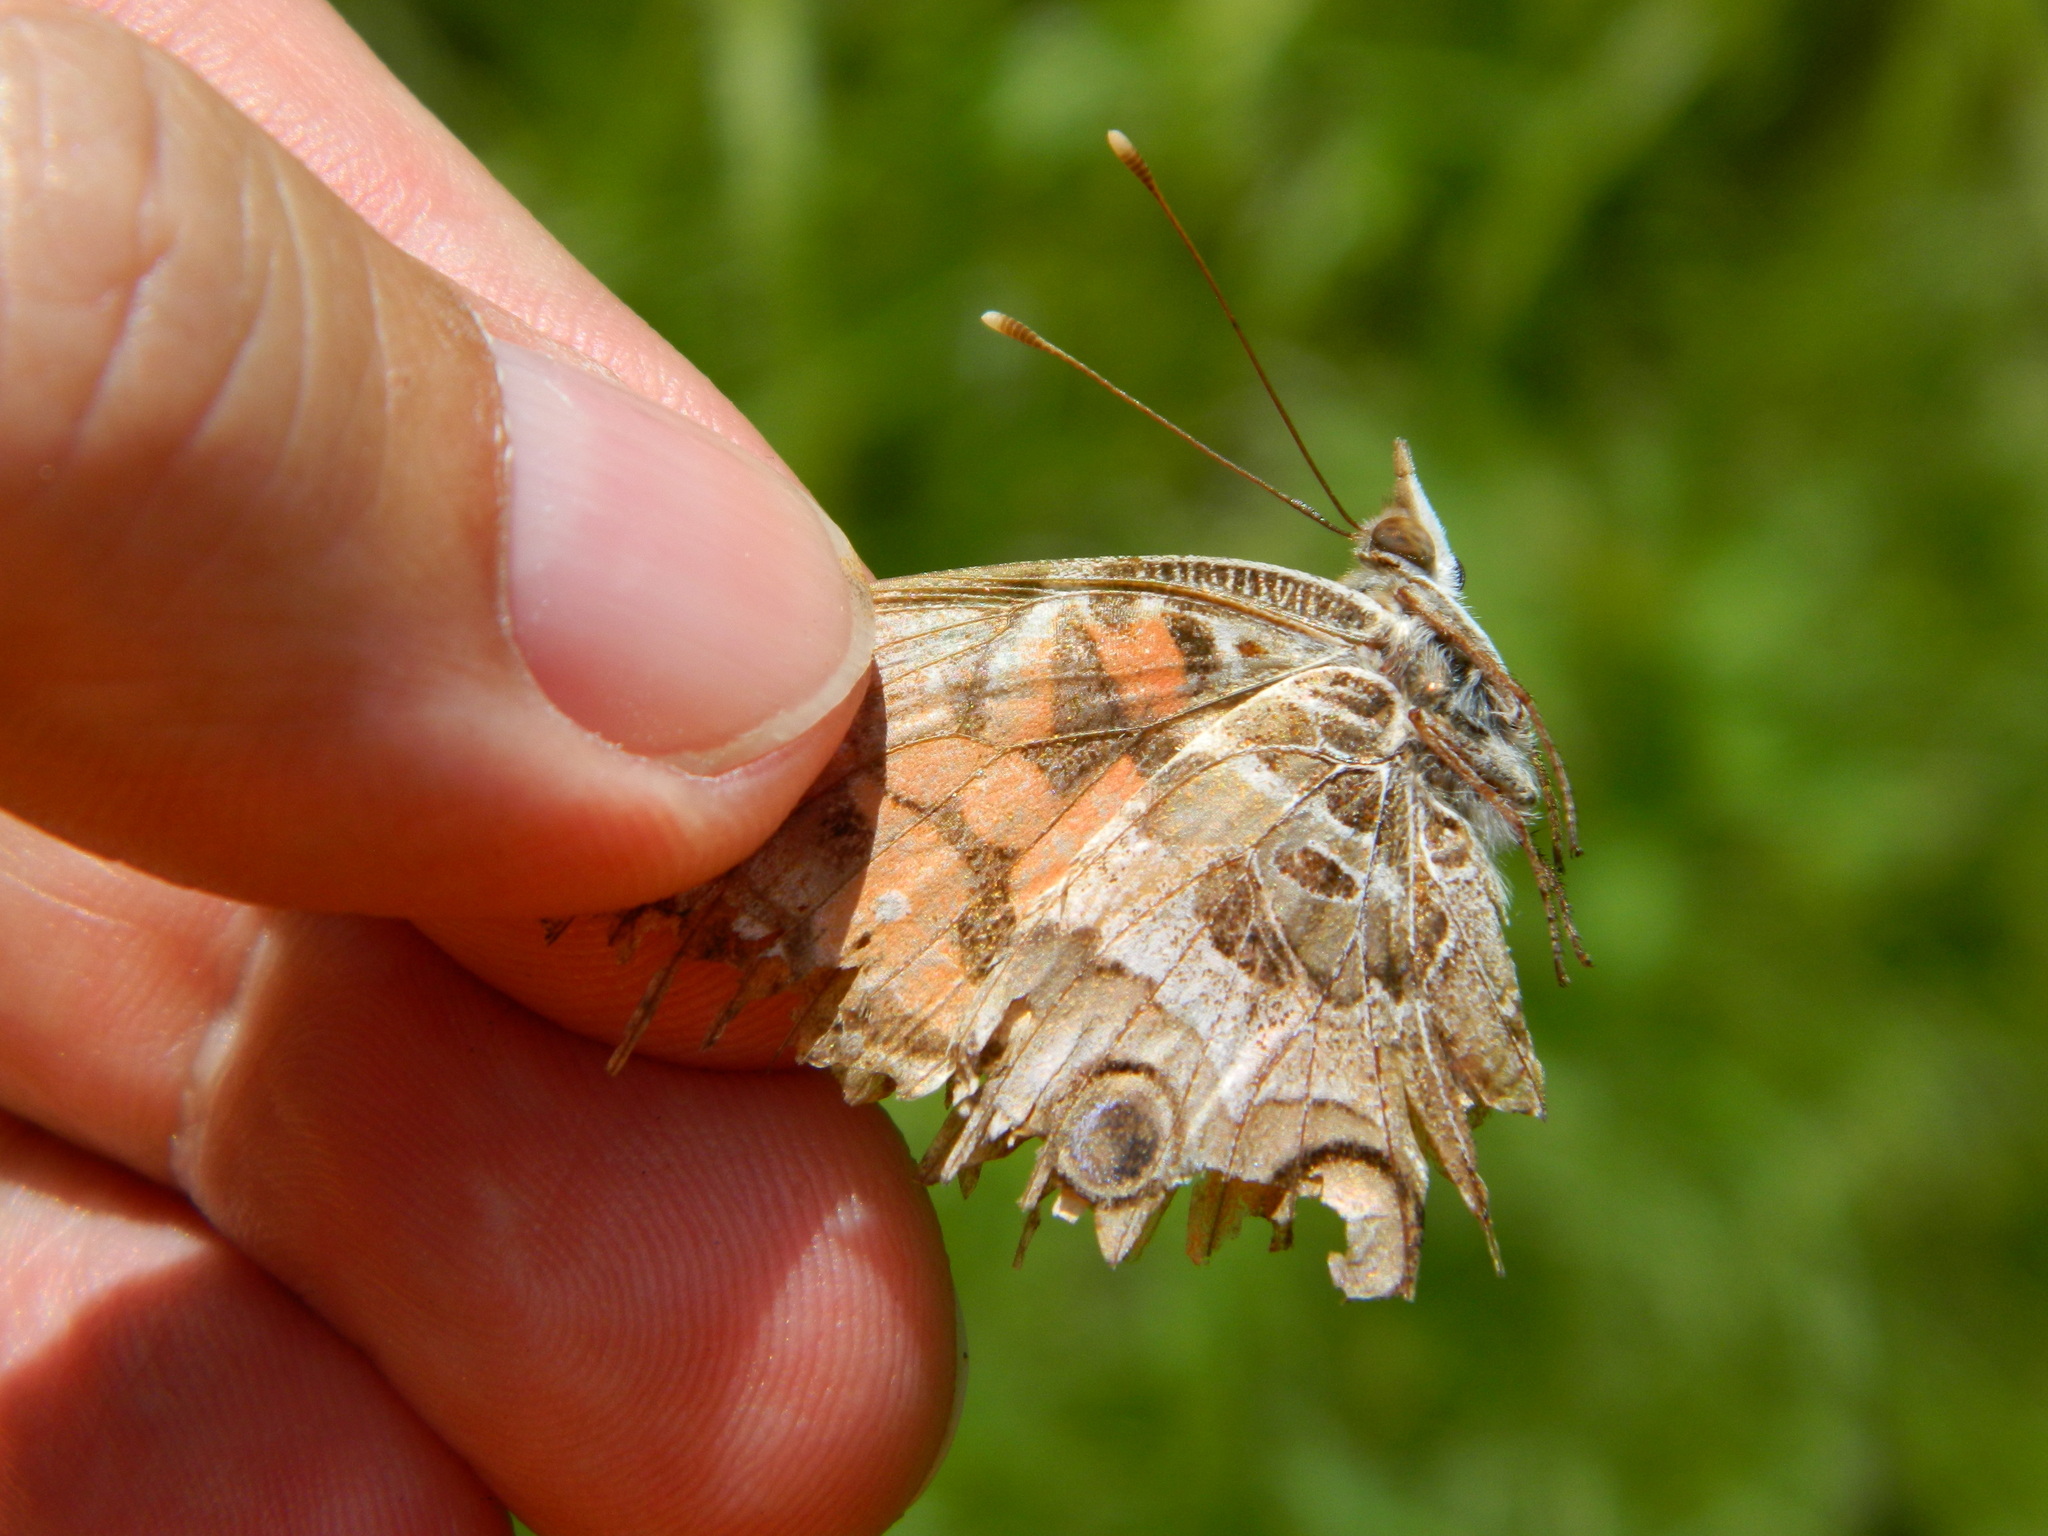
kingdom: Animalia
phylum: Arthropoda
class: Insecta
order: Lepidoptera
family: Nymphalidae
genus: Vanessa
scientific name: Vanessa virginiensis
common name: American lady
